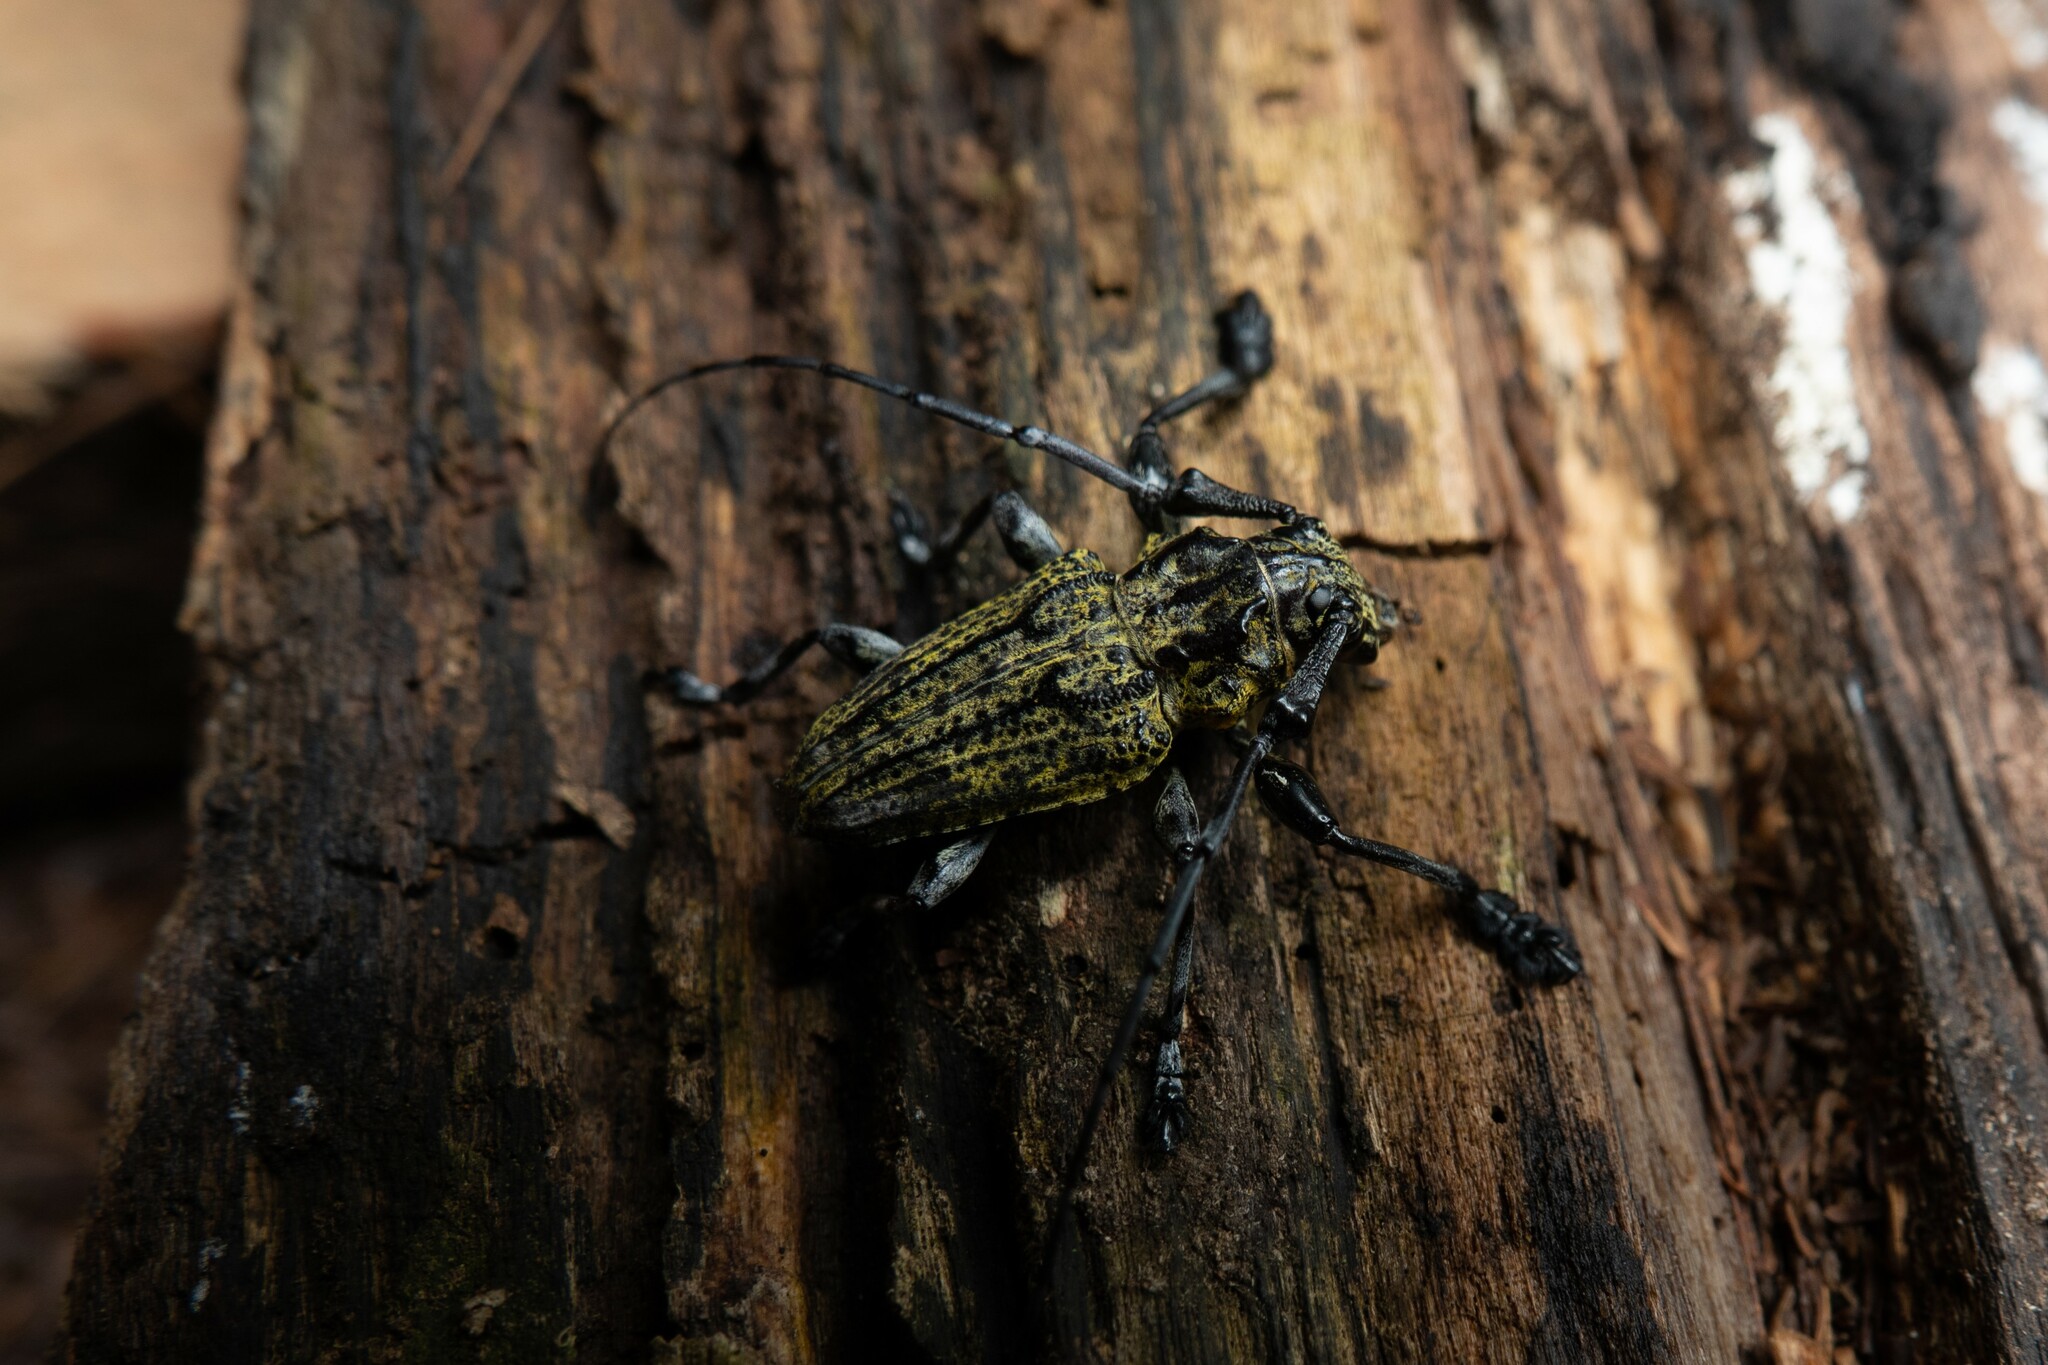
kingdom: Animalia
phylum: Arthropoda
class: Insecta
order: Coleoptera
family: Cerambycidae
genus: Steirastoma
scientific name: Steirastoma breve
